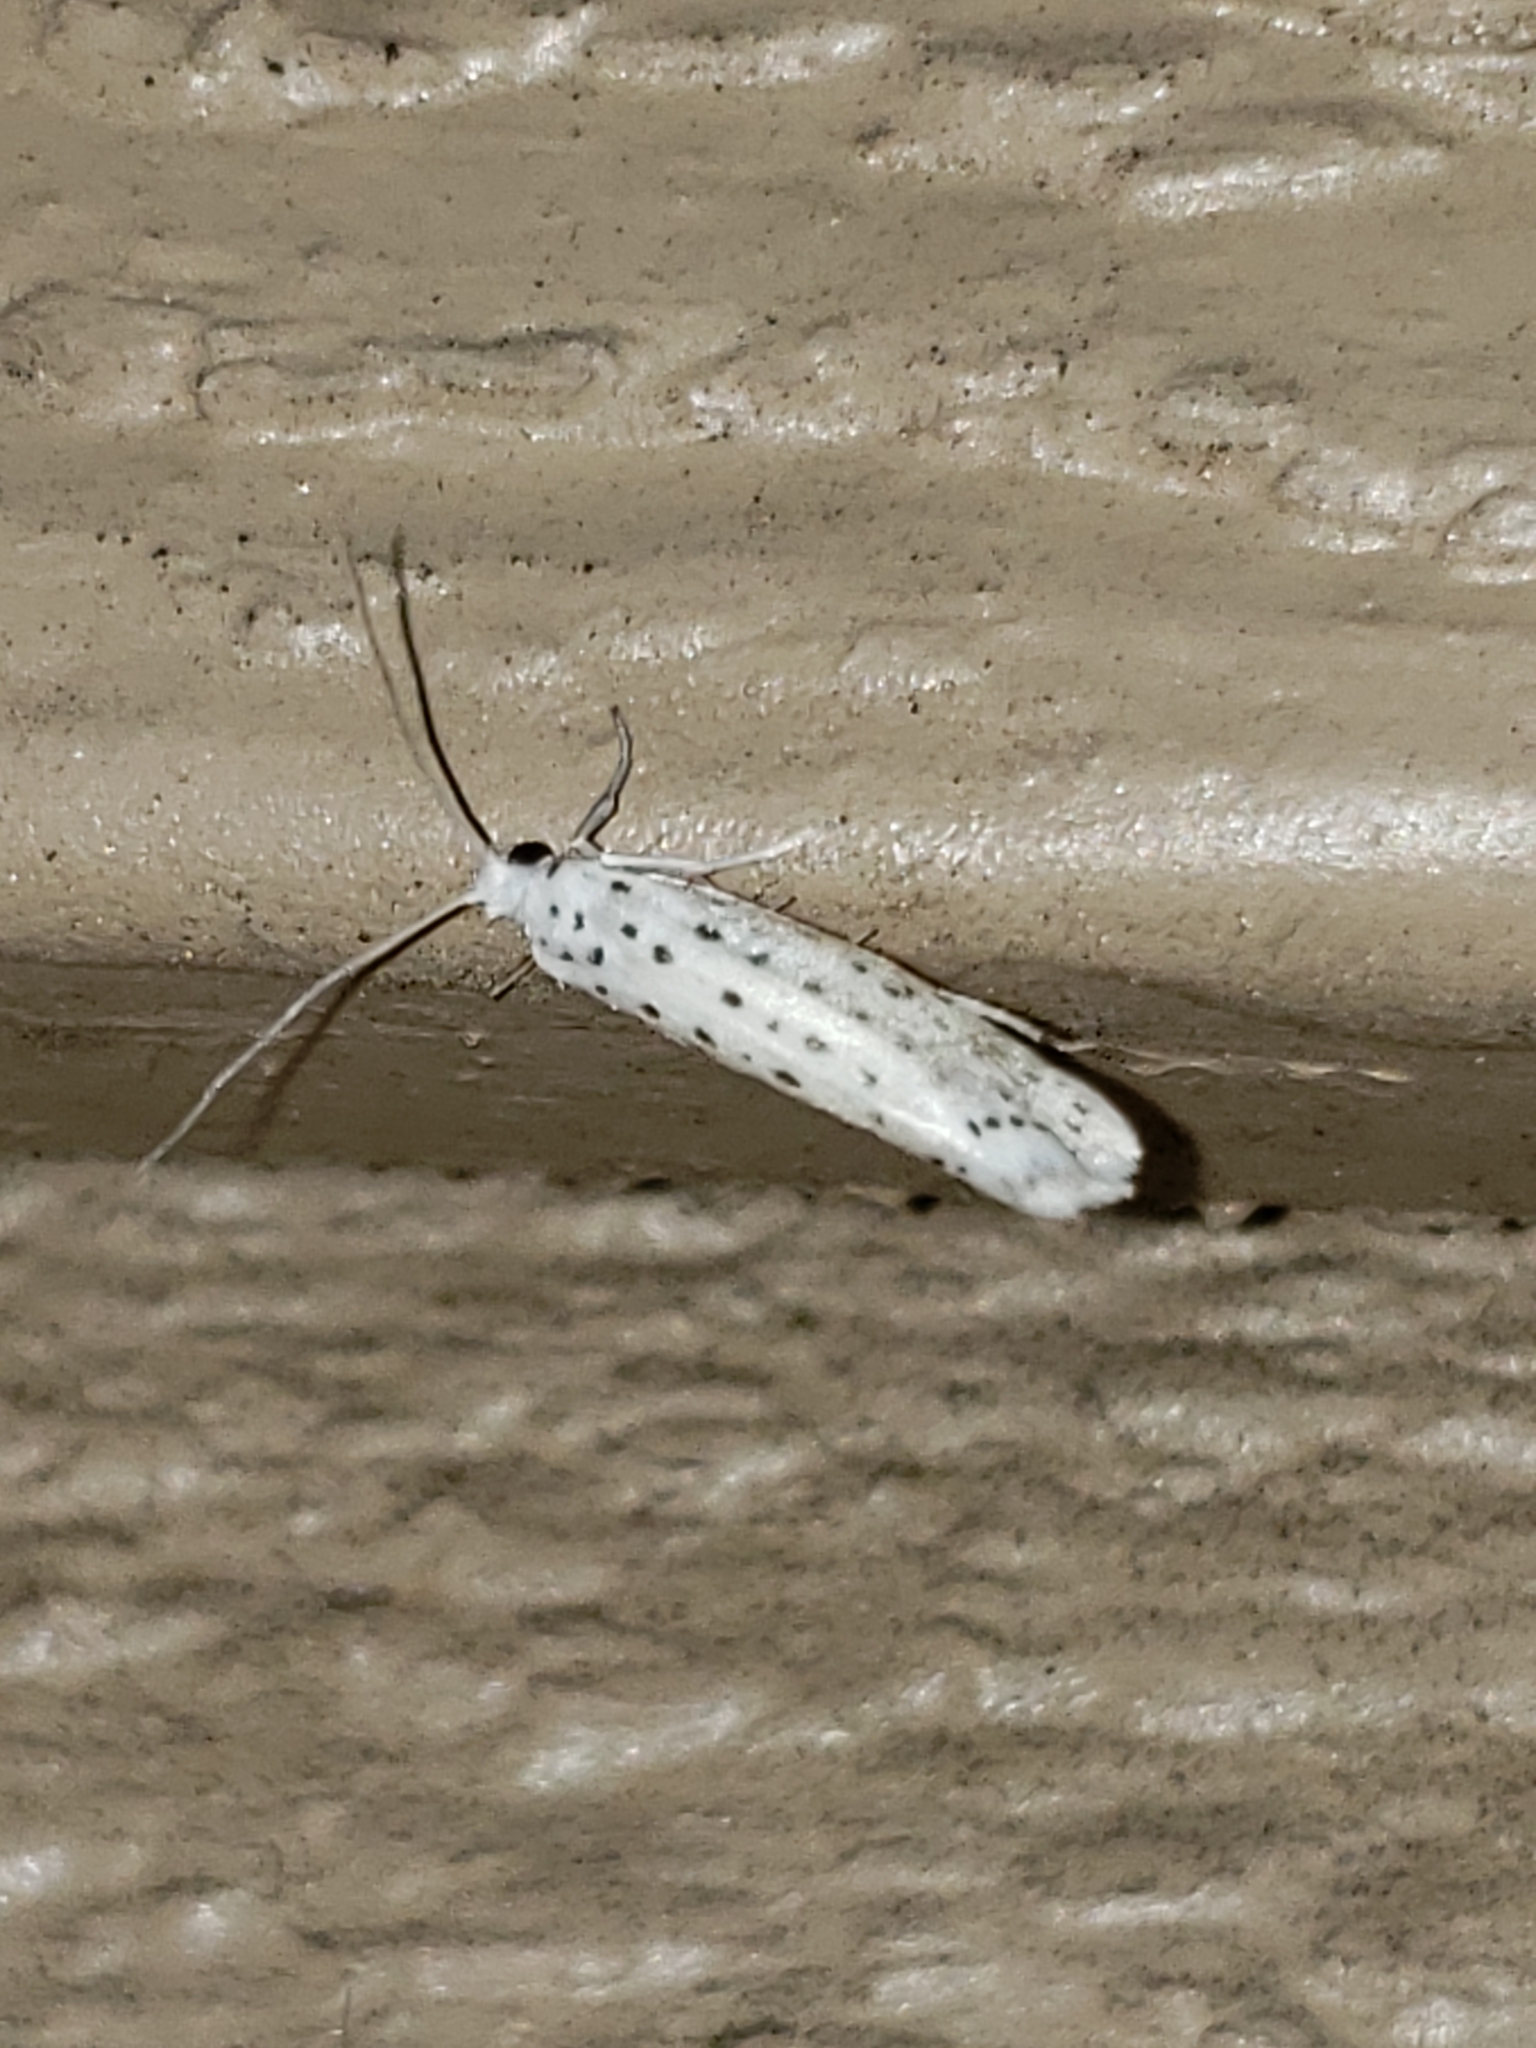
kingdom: Animalia
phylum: Arthropoda
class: Insecta
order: Lepidoptera
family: Yponomeutidae
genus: Yponomeuta
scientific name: Yponomeuta multipunctella
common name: American ermine moth
